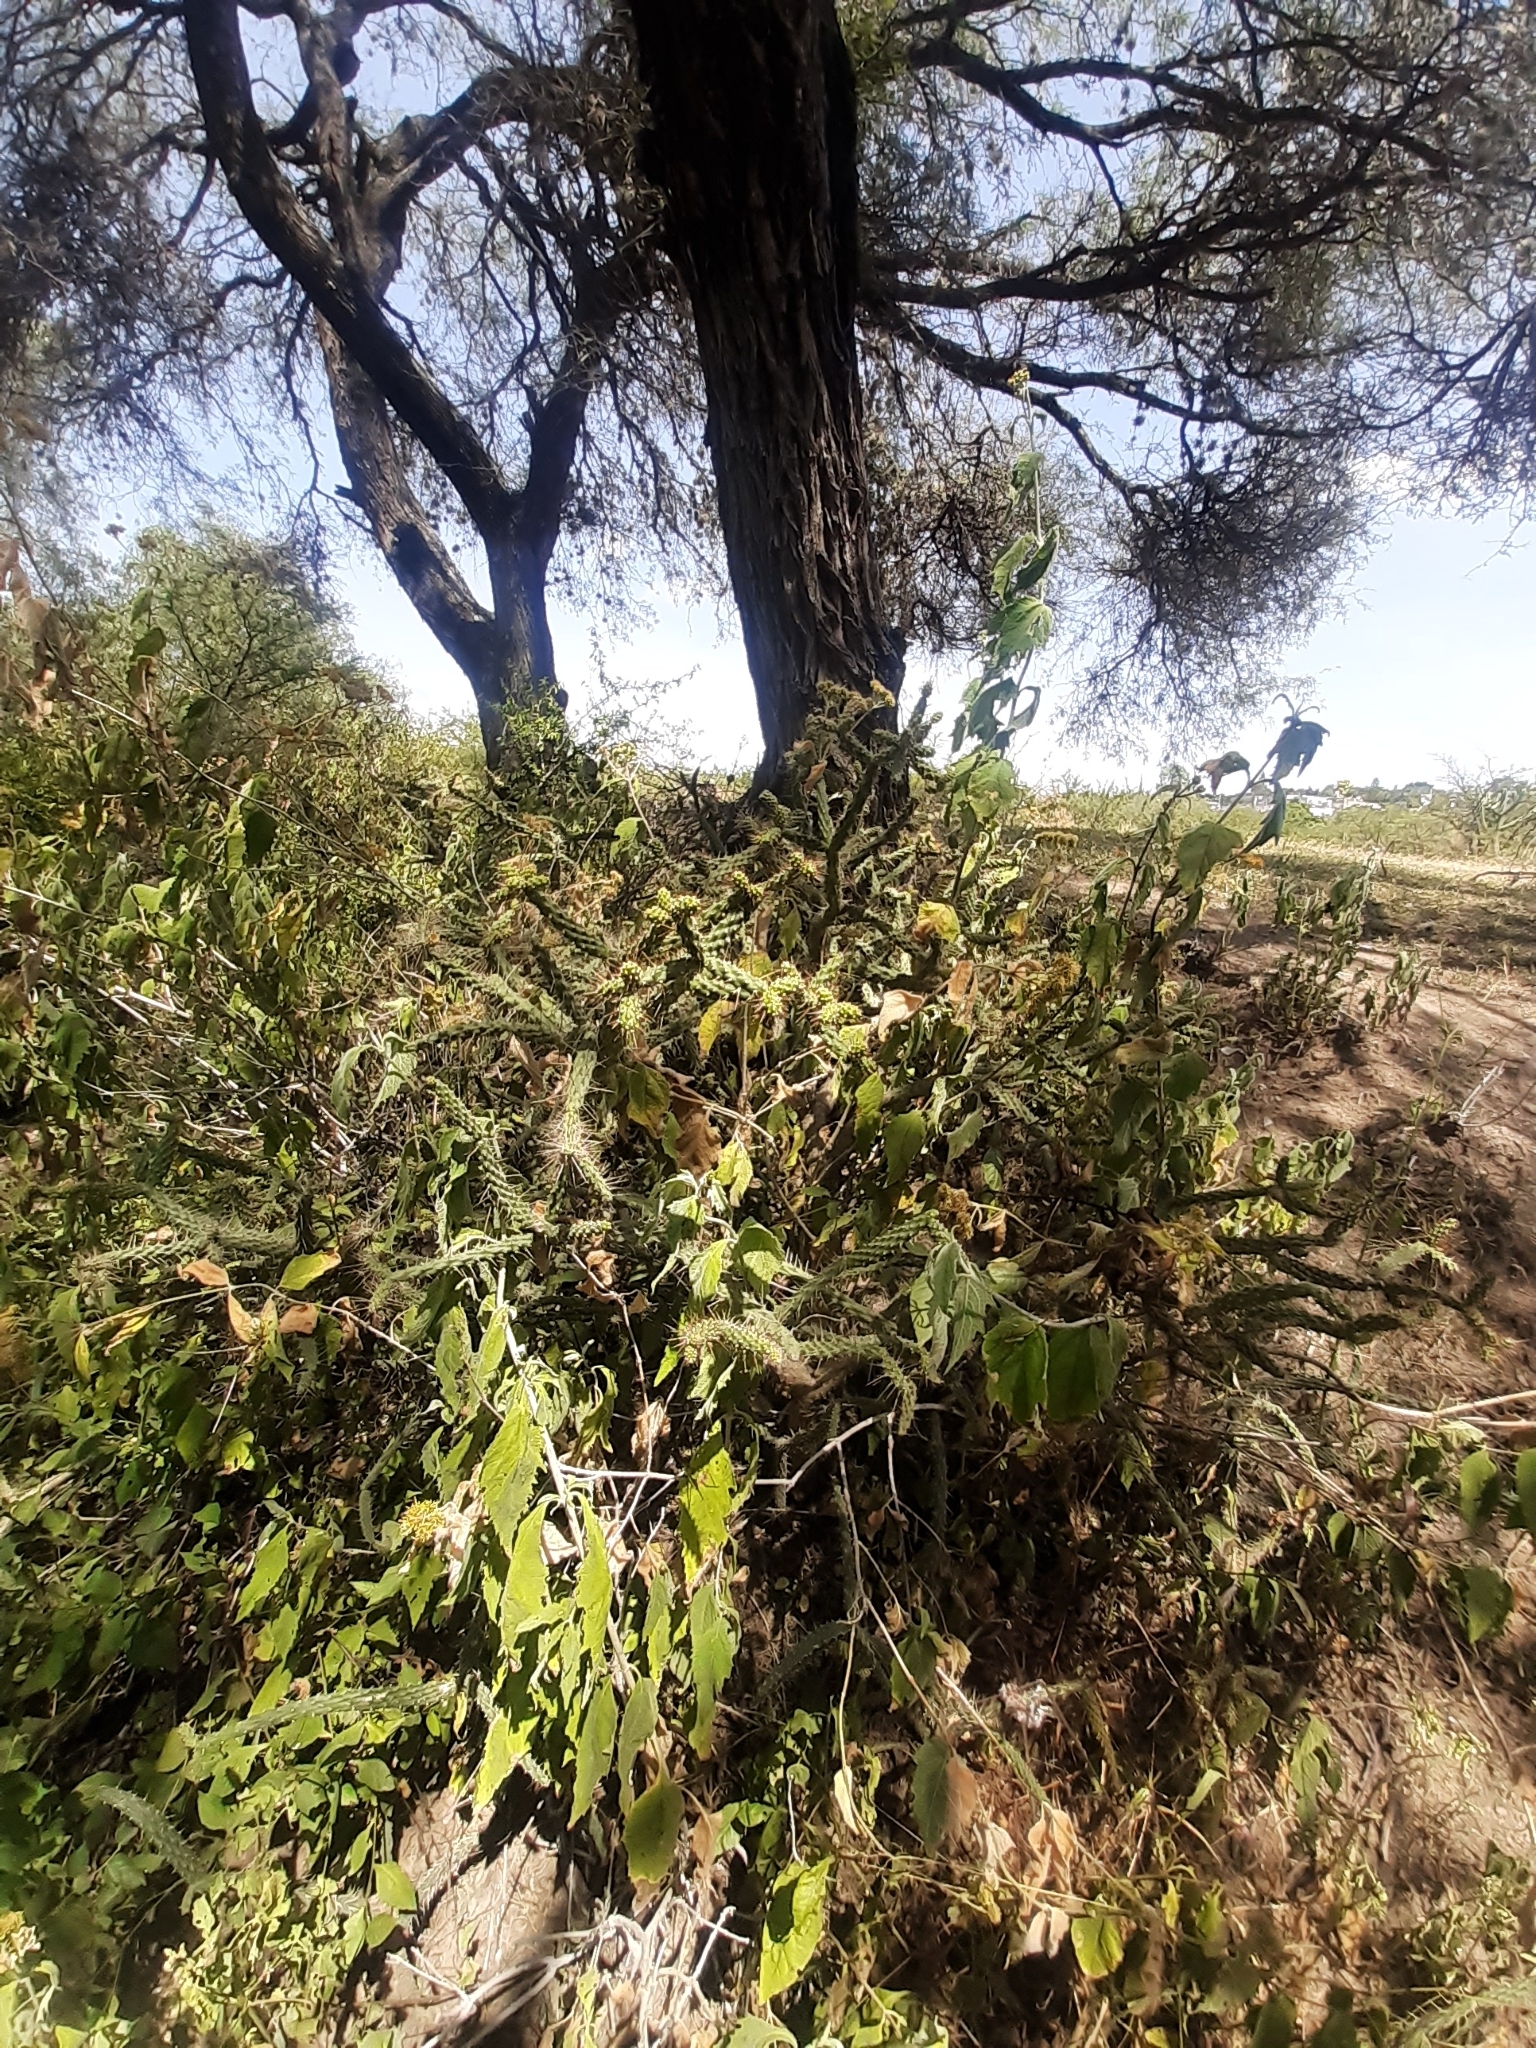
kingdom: Plantae
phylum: Tracheophyta
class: Magnoliopsida
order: Caryophyllales
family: Cactaceae
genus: Opuntia
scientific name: Opuntia pubescens
